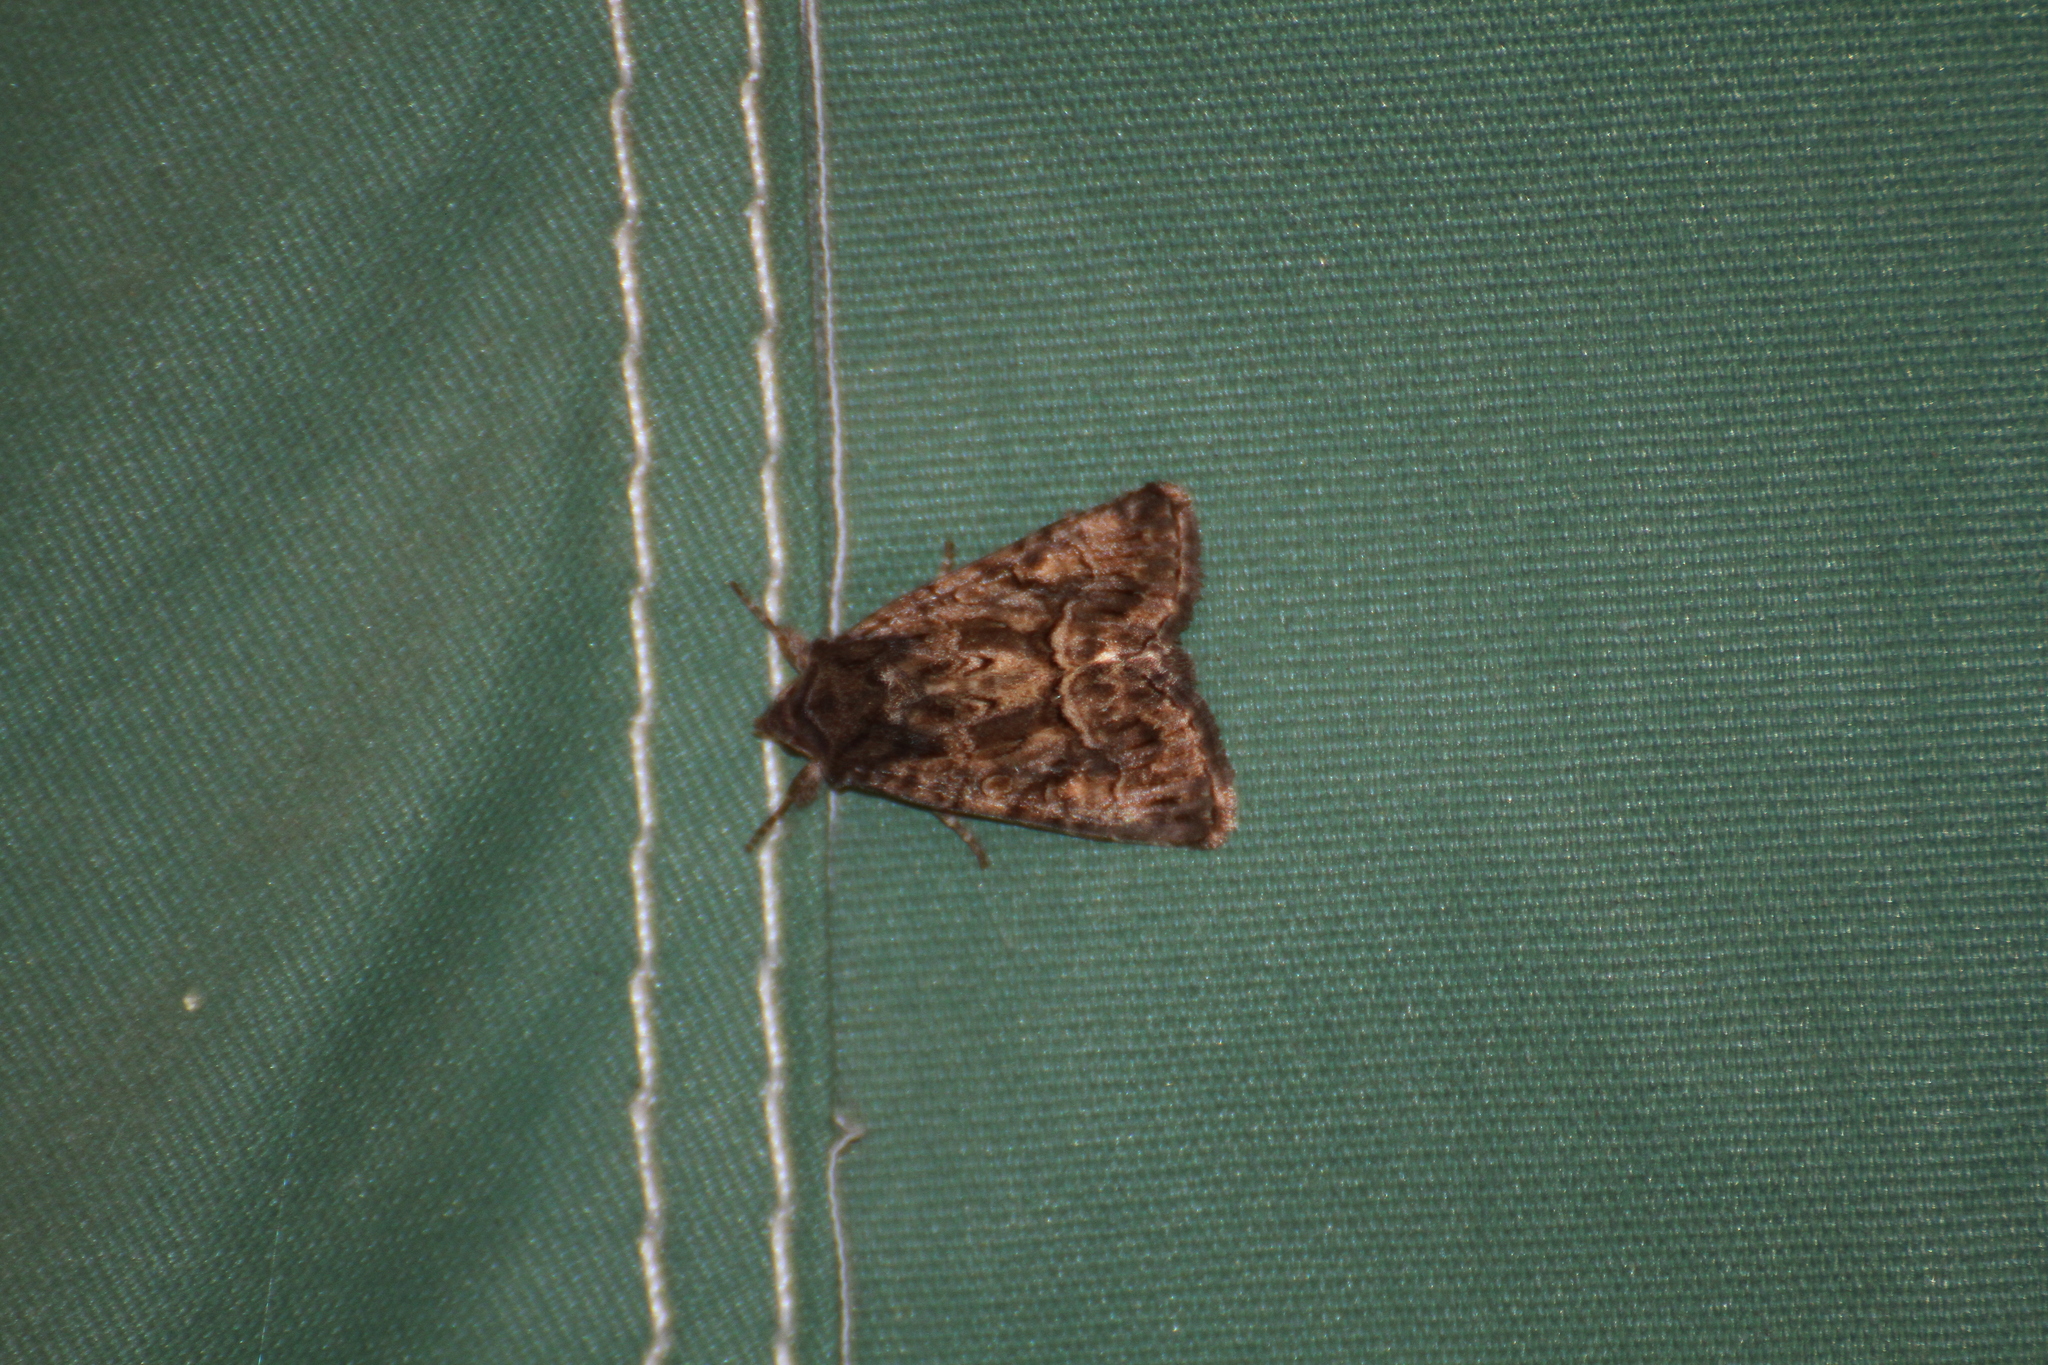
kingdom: Animalia
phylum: Arthropoda
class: Insecta
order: Lepidoptera
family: Noctuidae
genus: Thalpophila
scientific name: Thalpophila matura
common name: Straw underwing
